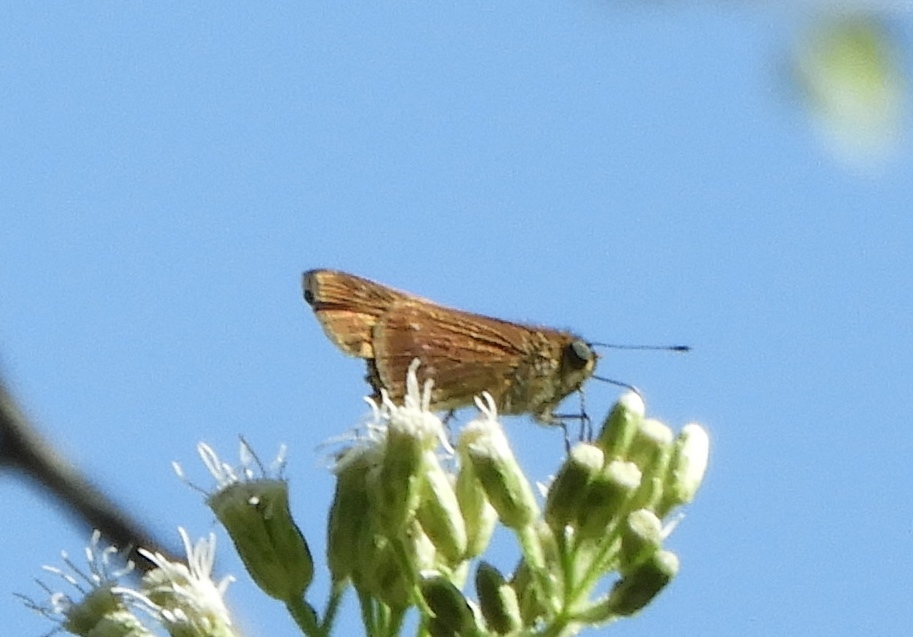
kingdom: Animalia
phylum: Arthropoda
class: Insecta
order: Lepidoptera
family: Hesperiidae
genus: Turesis
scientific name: Turesis lucas
